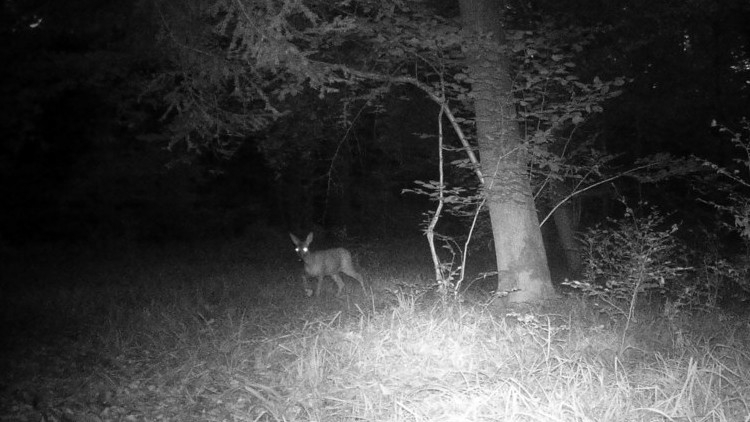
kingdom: Animalia
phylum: Chordata
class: Mammalia
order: Artiodactyla
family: Cervidae
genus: Capreolus
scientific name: Capreolus capreolus
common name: Western roe deer
